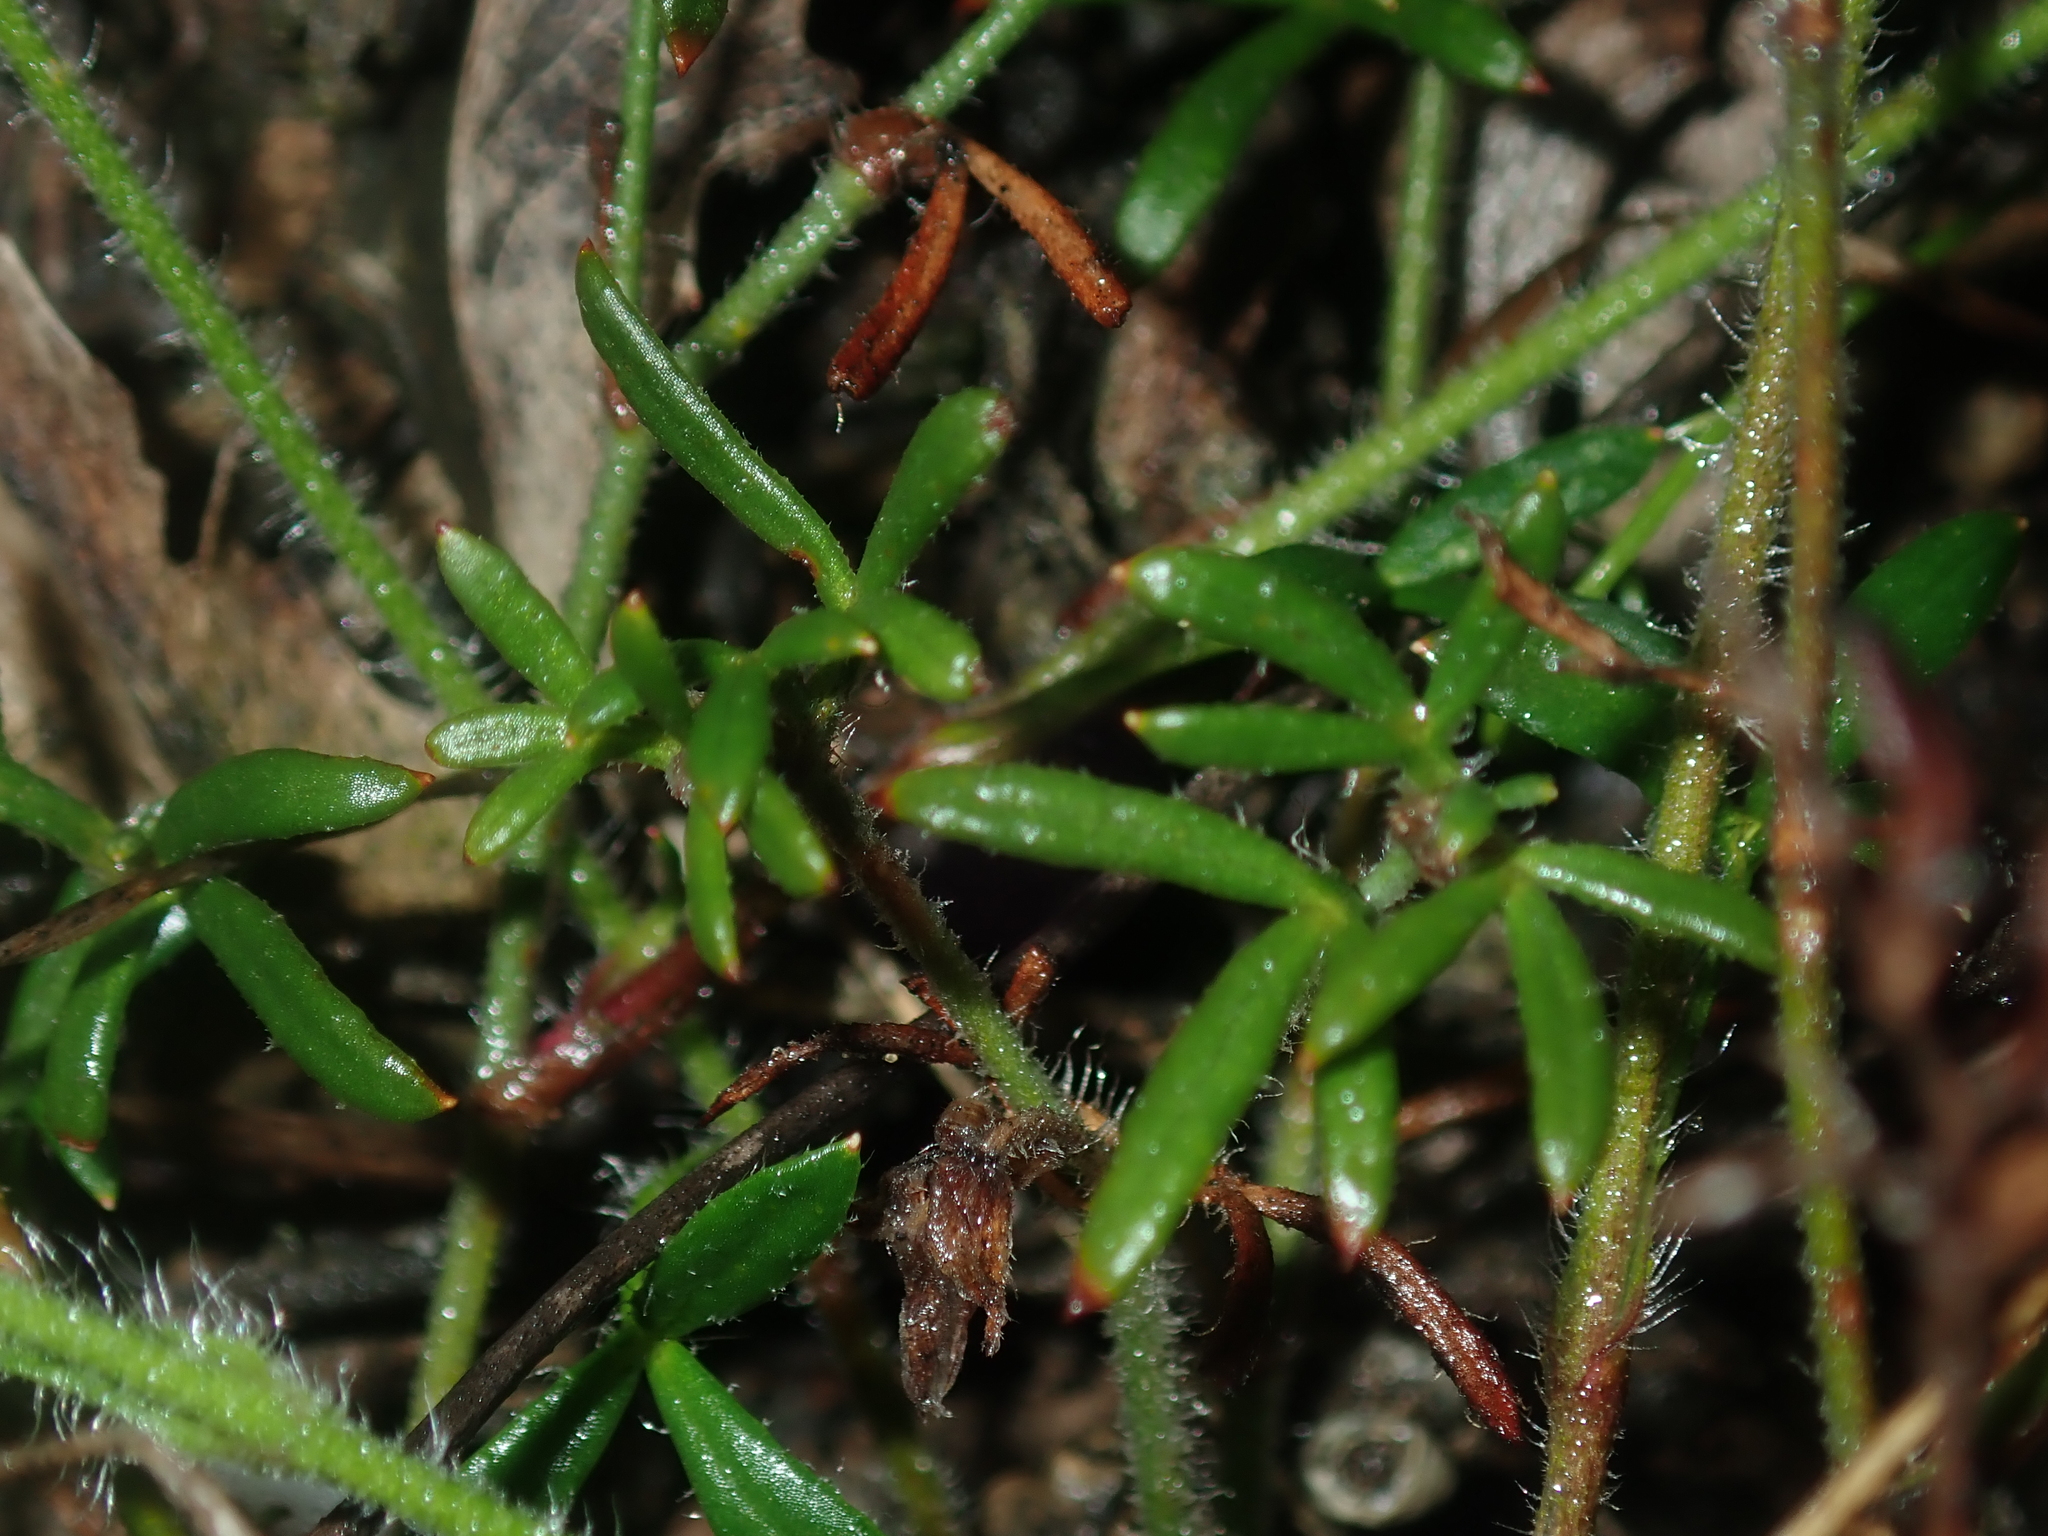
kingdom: Plantae
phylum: Tracheophyta
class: Magnoliopsida
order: Apiales
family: Apiaceae
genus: Xanthosia
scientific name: Xanthosia huegelii
